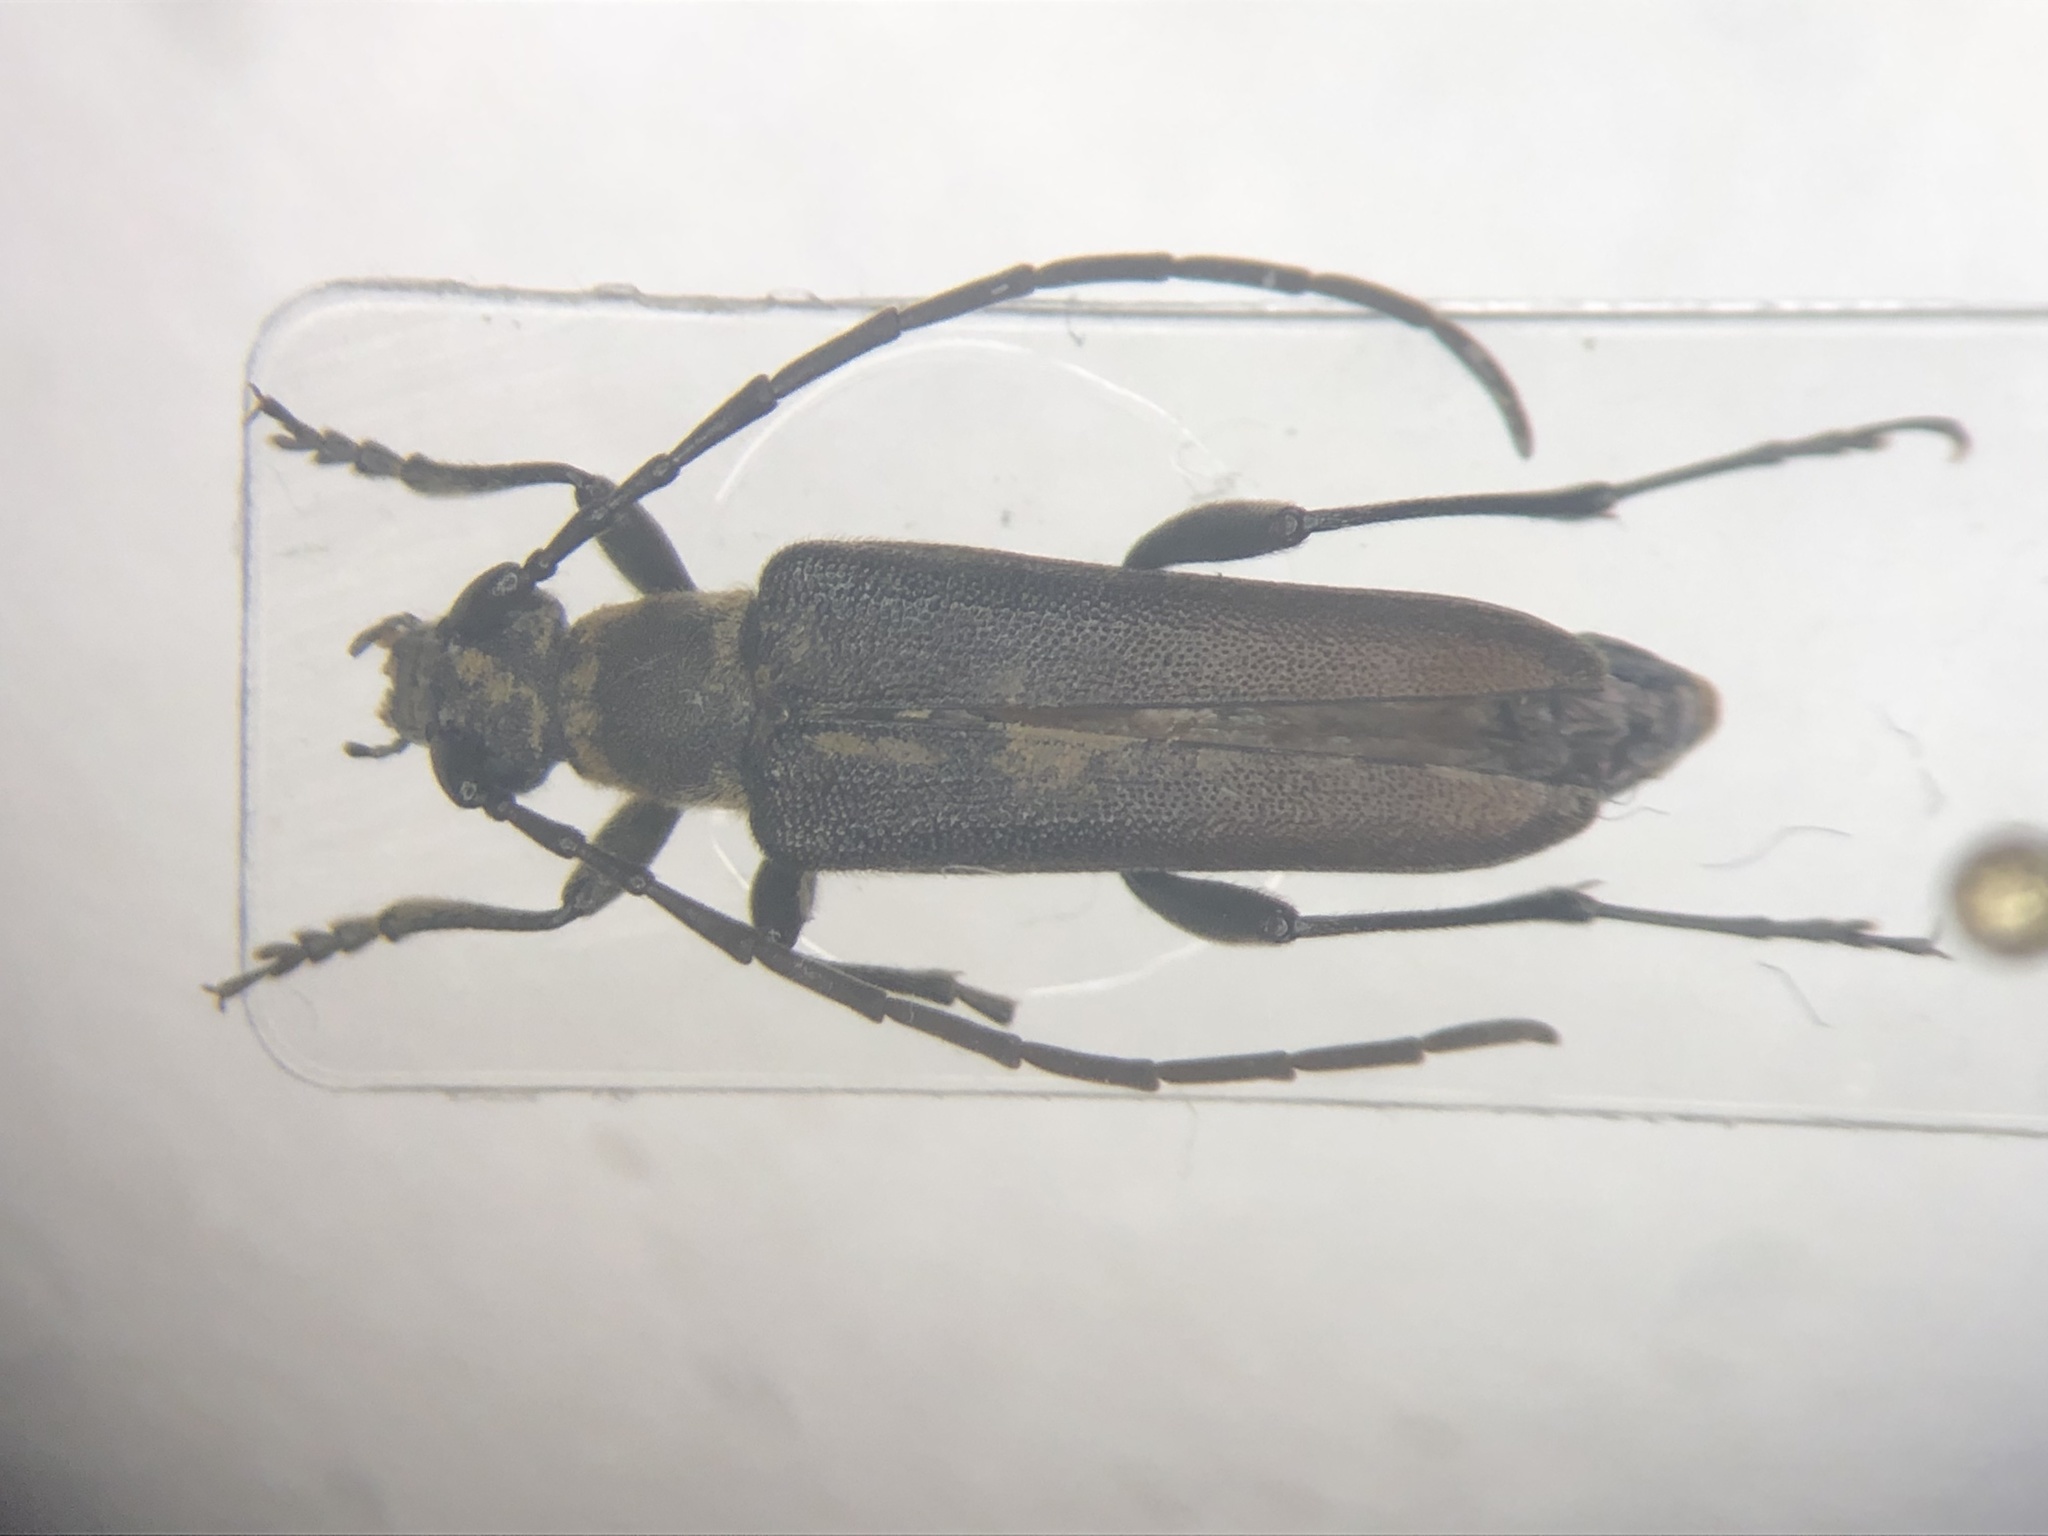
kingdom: Animalia
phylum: Arthropoda
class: Insecta
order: Coleoptera
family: Cerambycidae
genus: Trachysida
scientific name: Trachysida mutabilis
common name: Changeable flower longhorn
